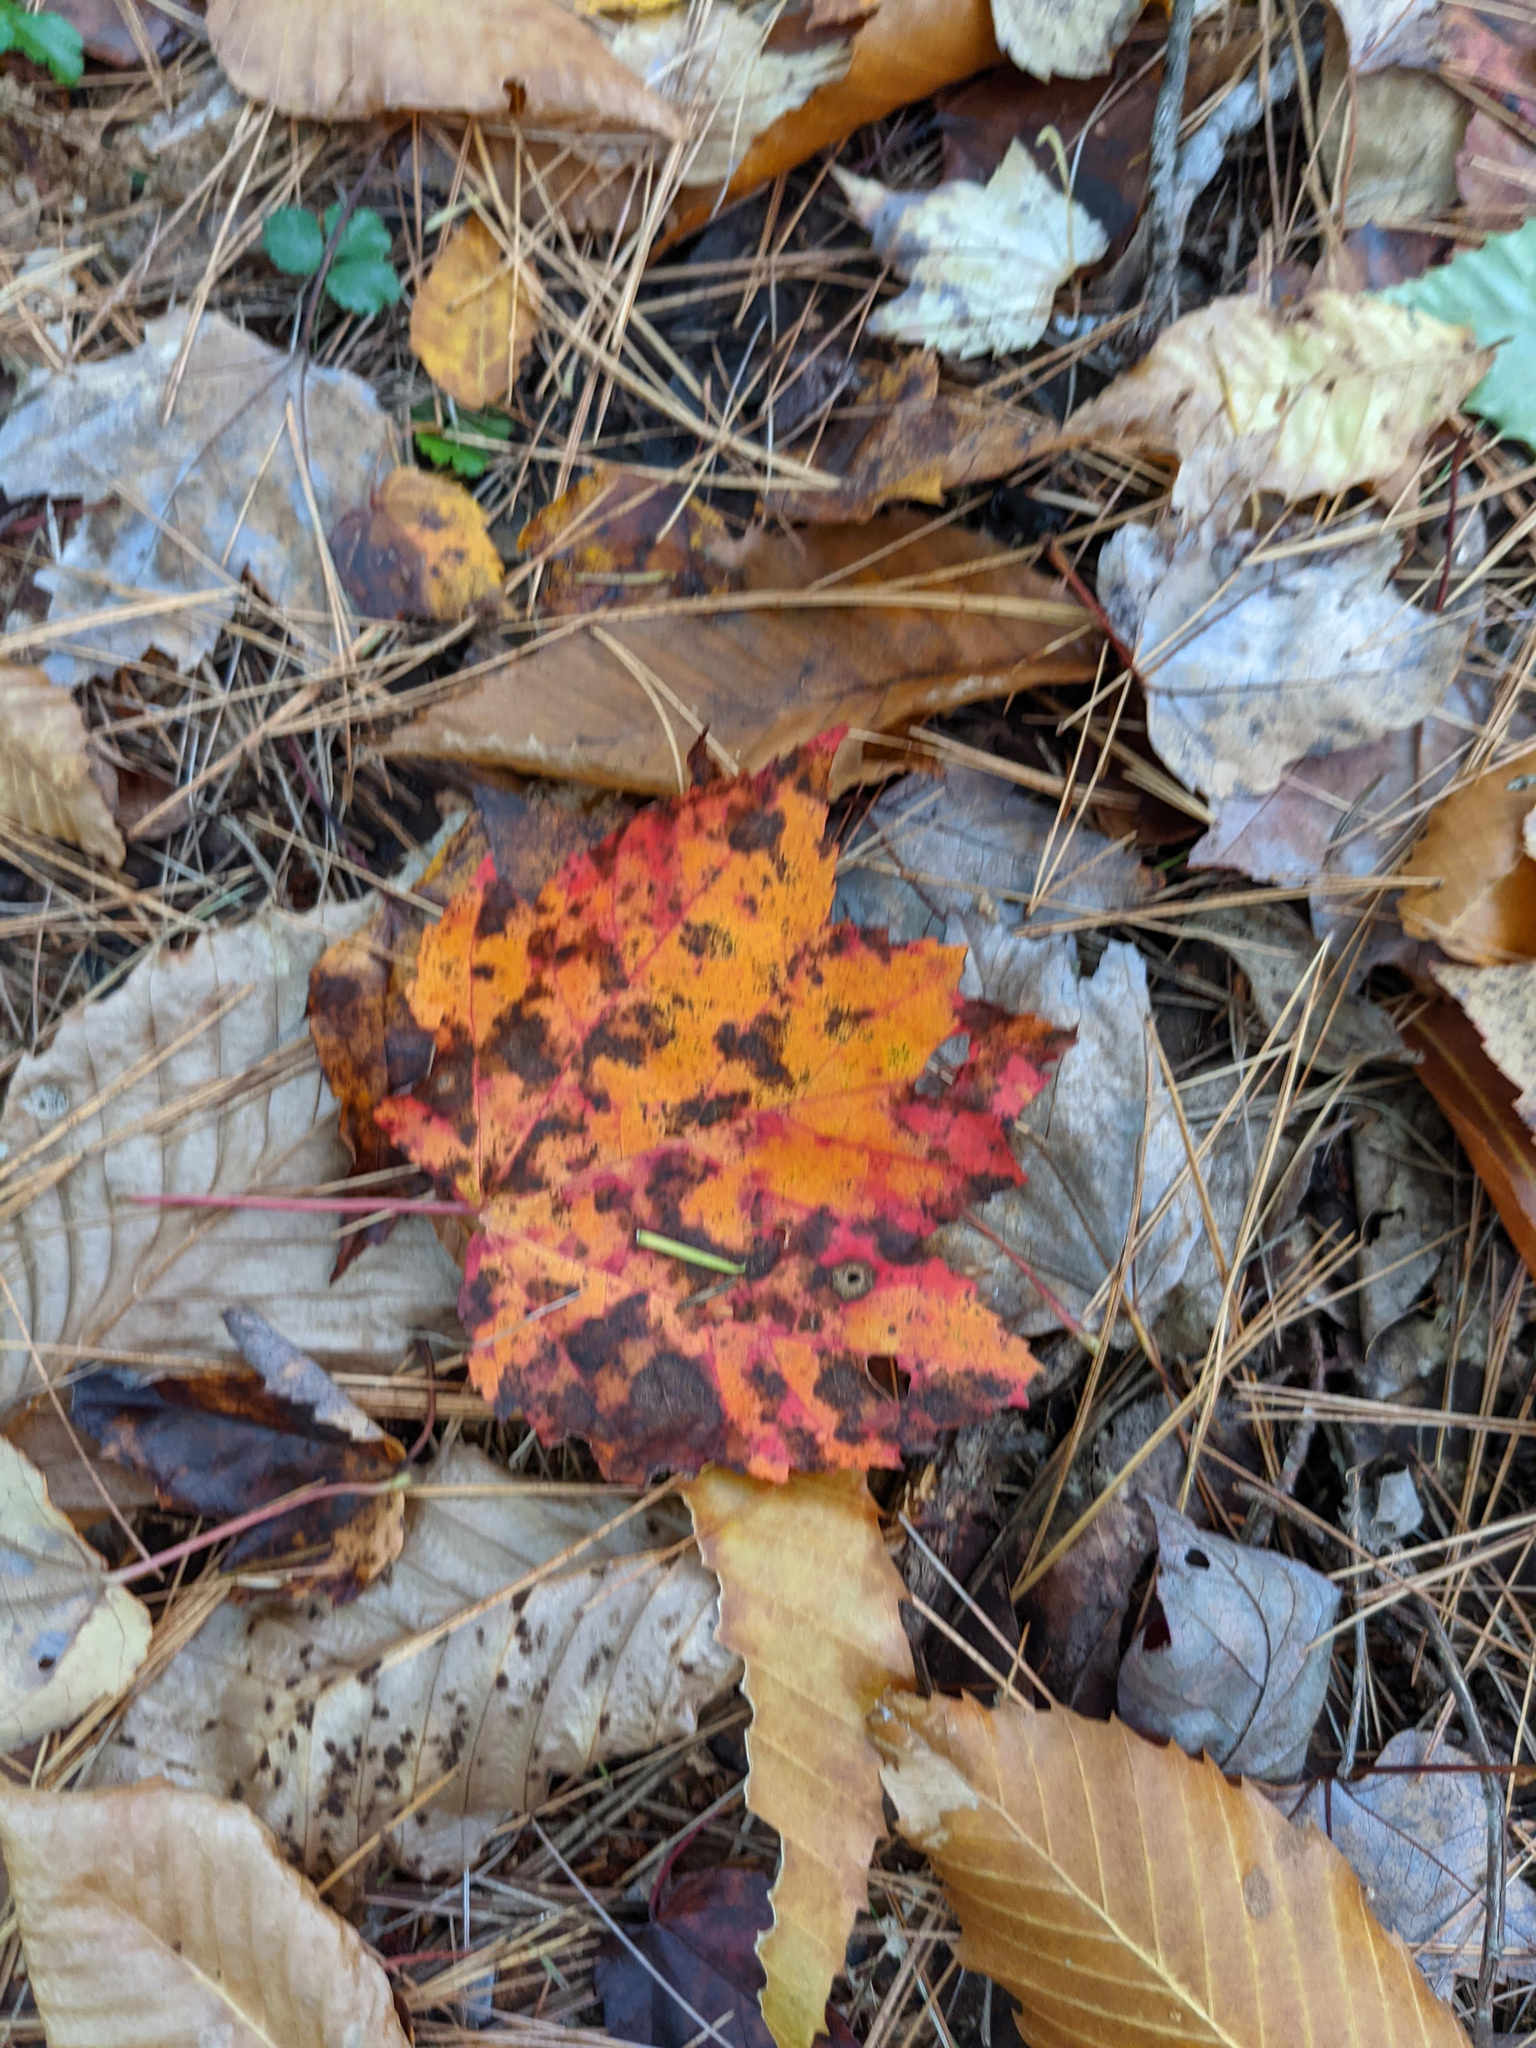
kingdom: Plantae
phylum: Tracheophyta
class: Magnoliopsida
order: Sapindales
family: Sapindaceae
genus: Acer
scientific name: Acer rubrum
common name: Red maple
